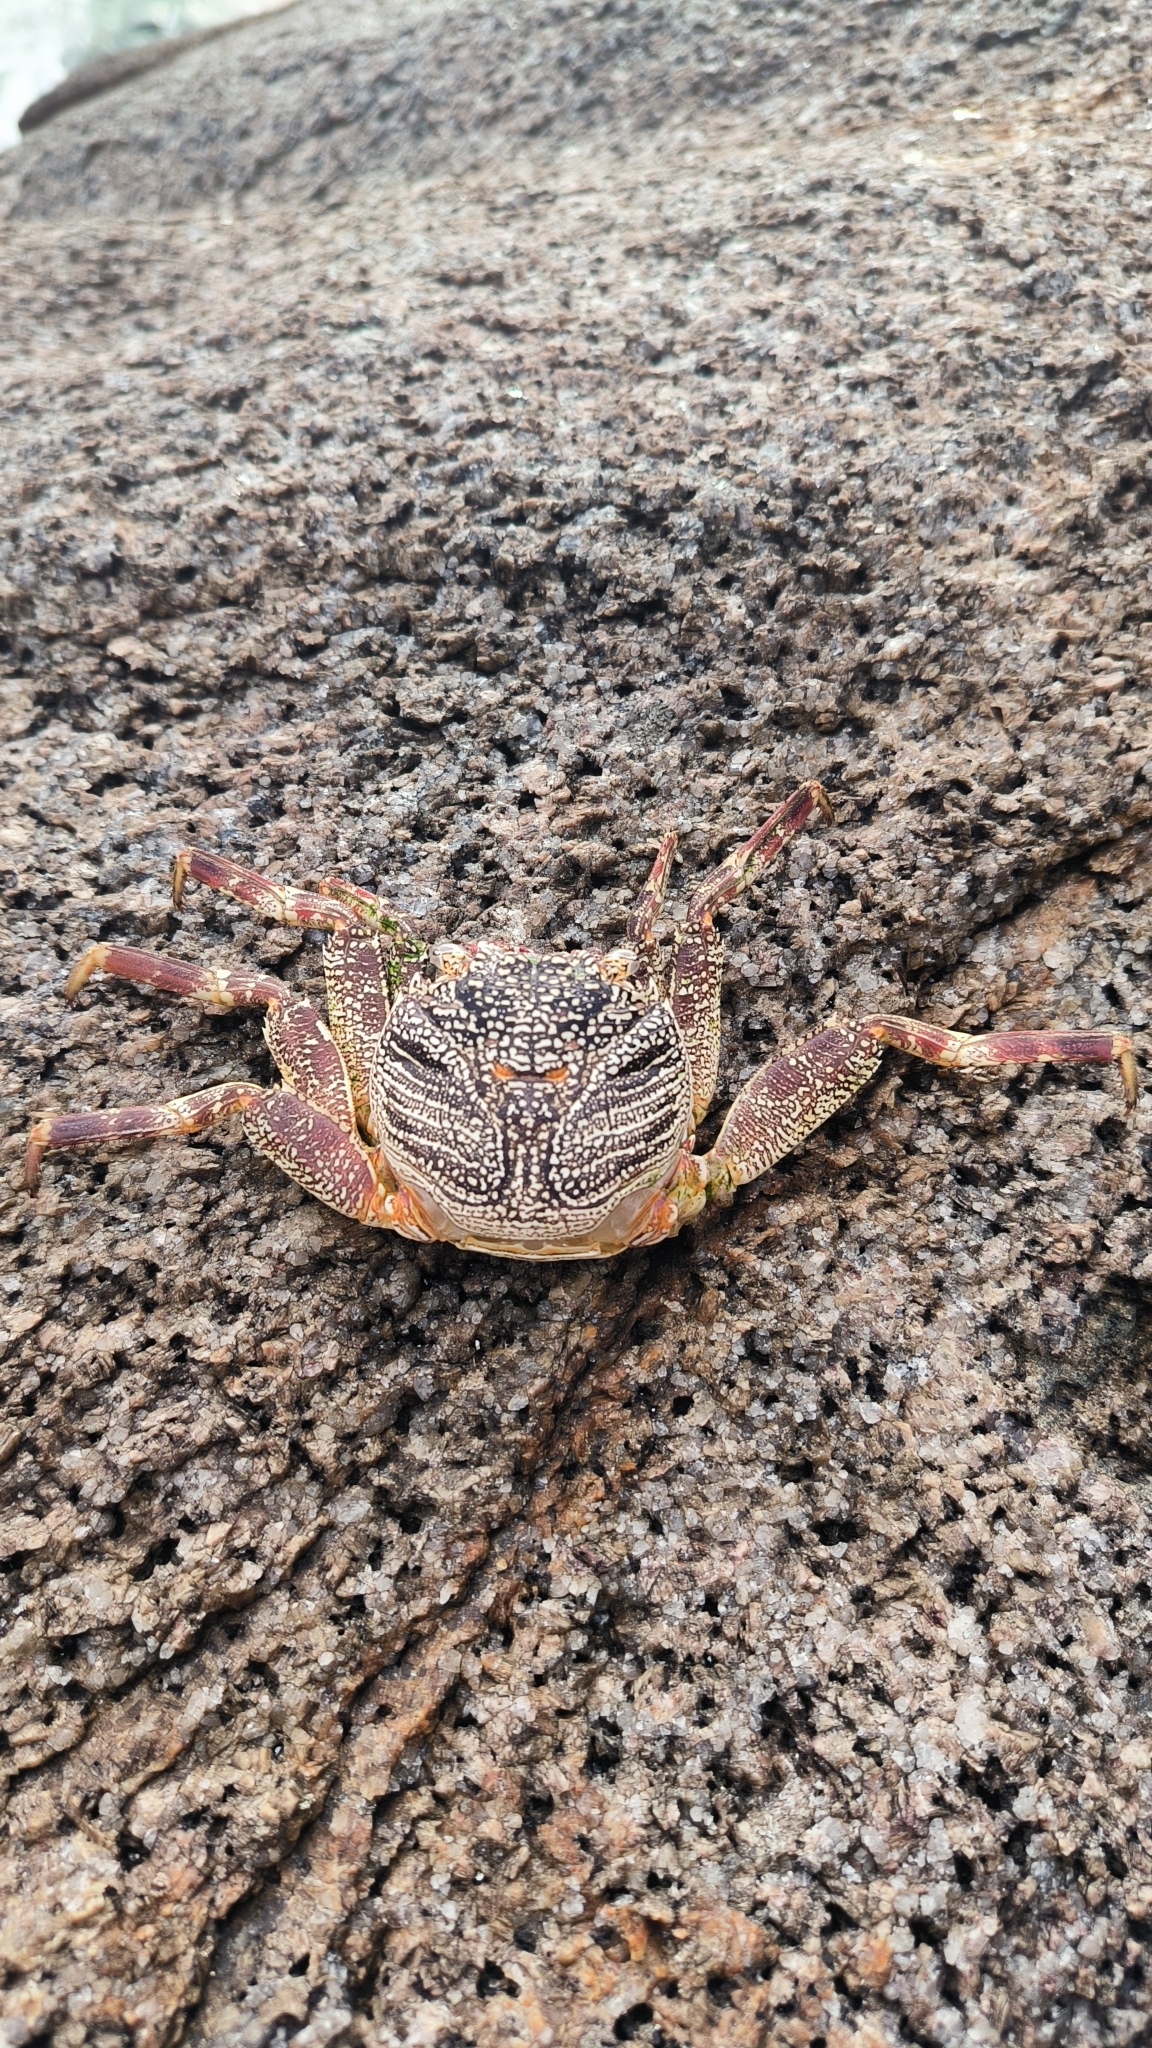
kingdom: Animalia
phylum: Arthropoda
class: Malacostraca
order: Decapoda
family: Grapsidae
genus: Grapsus
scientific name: Grapsus tenuicrustatus
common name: Natal lightfoot crab
